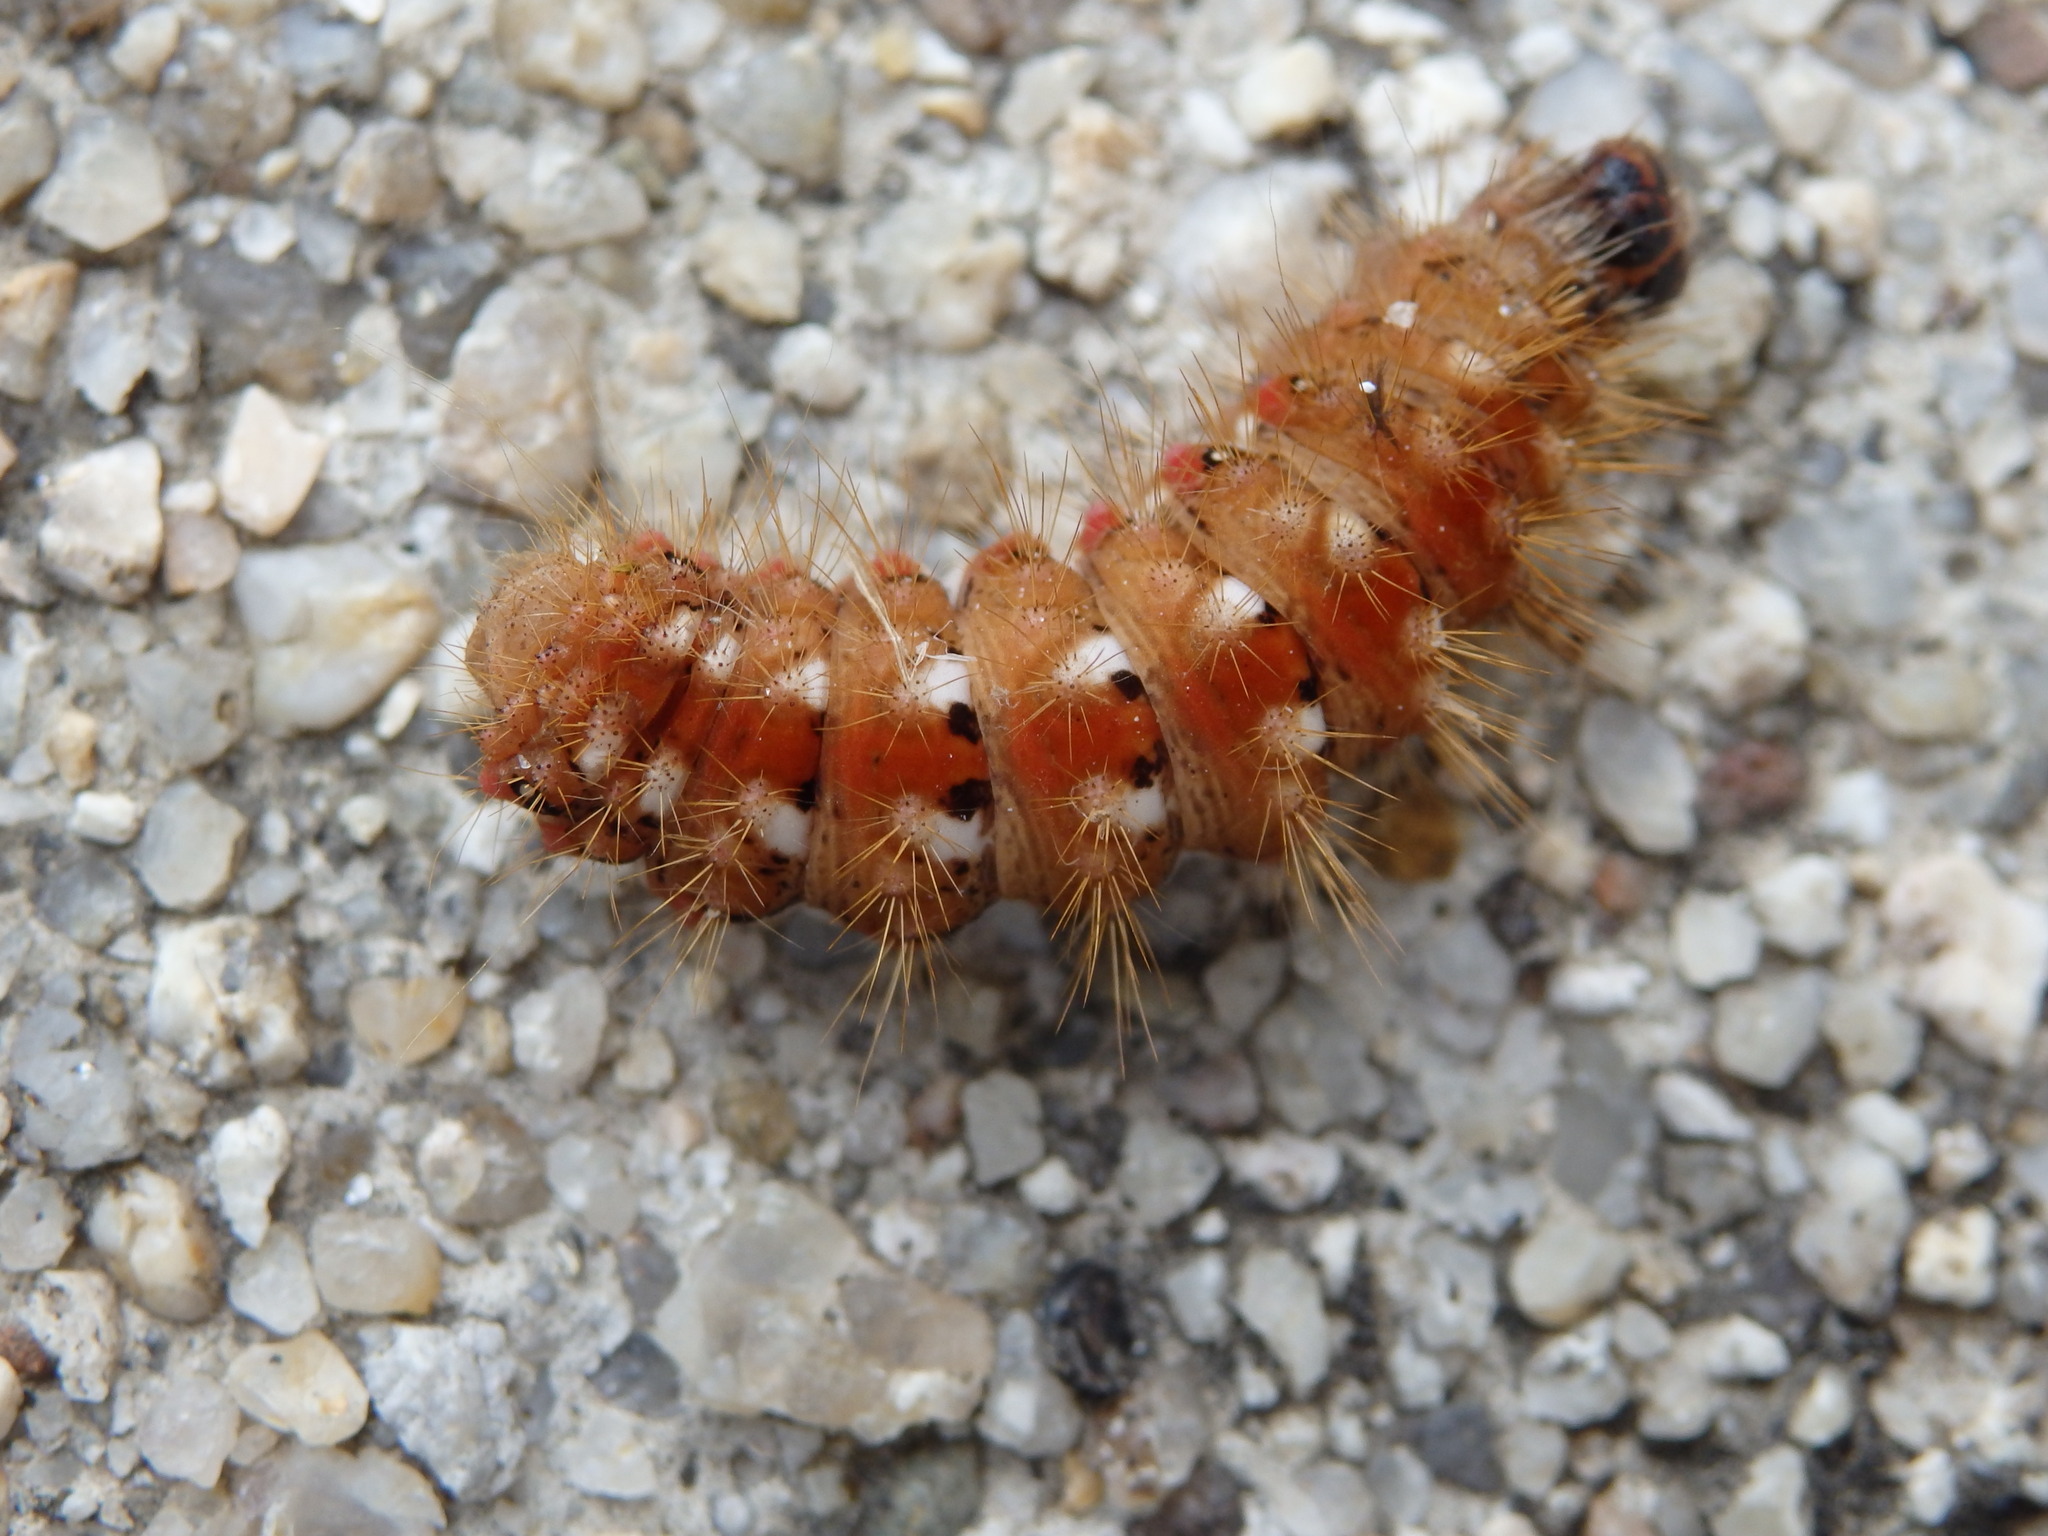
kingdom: Animalia
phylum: Arthropoda
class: Insecta
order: Lepidoptera
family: Noctuidae
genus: Acronicta
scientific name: Acronicta rumicis
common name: Knot grass
